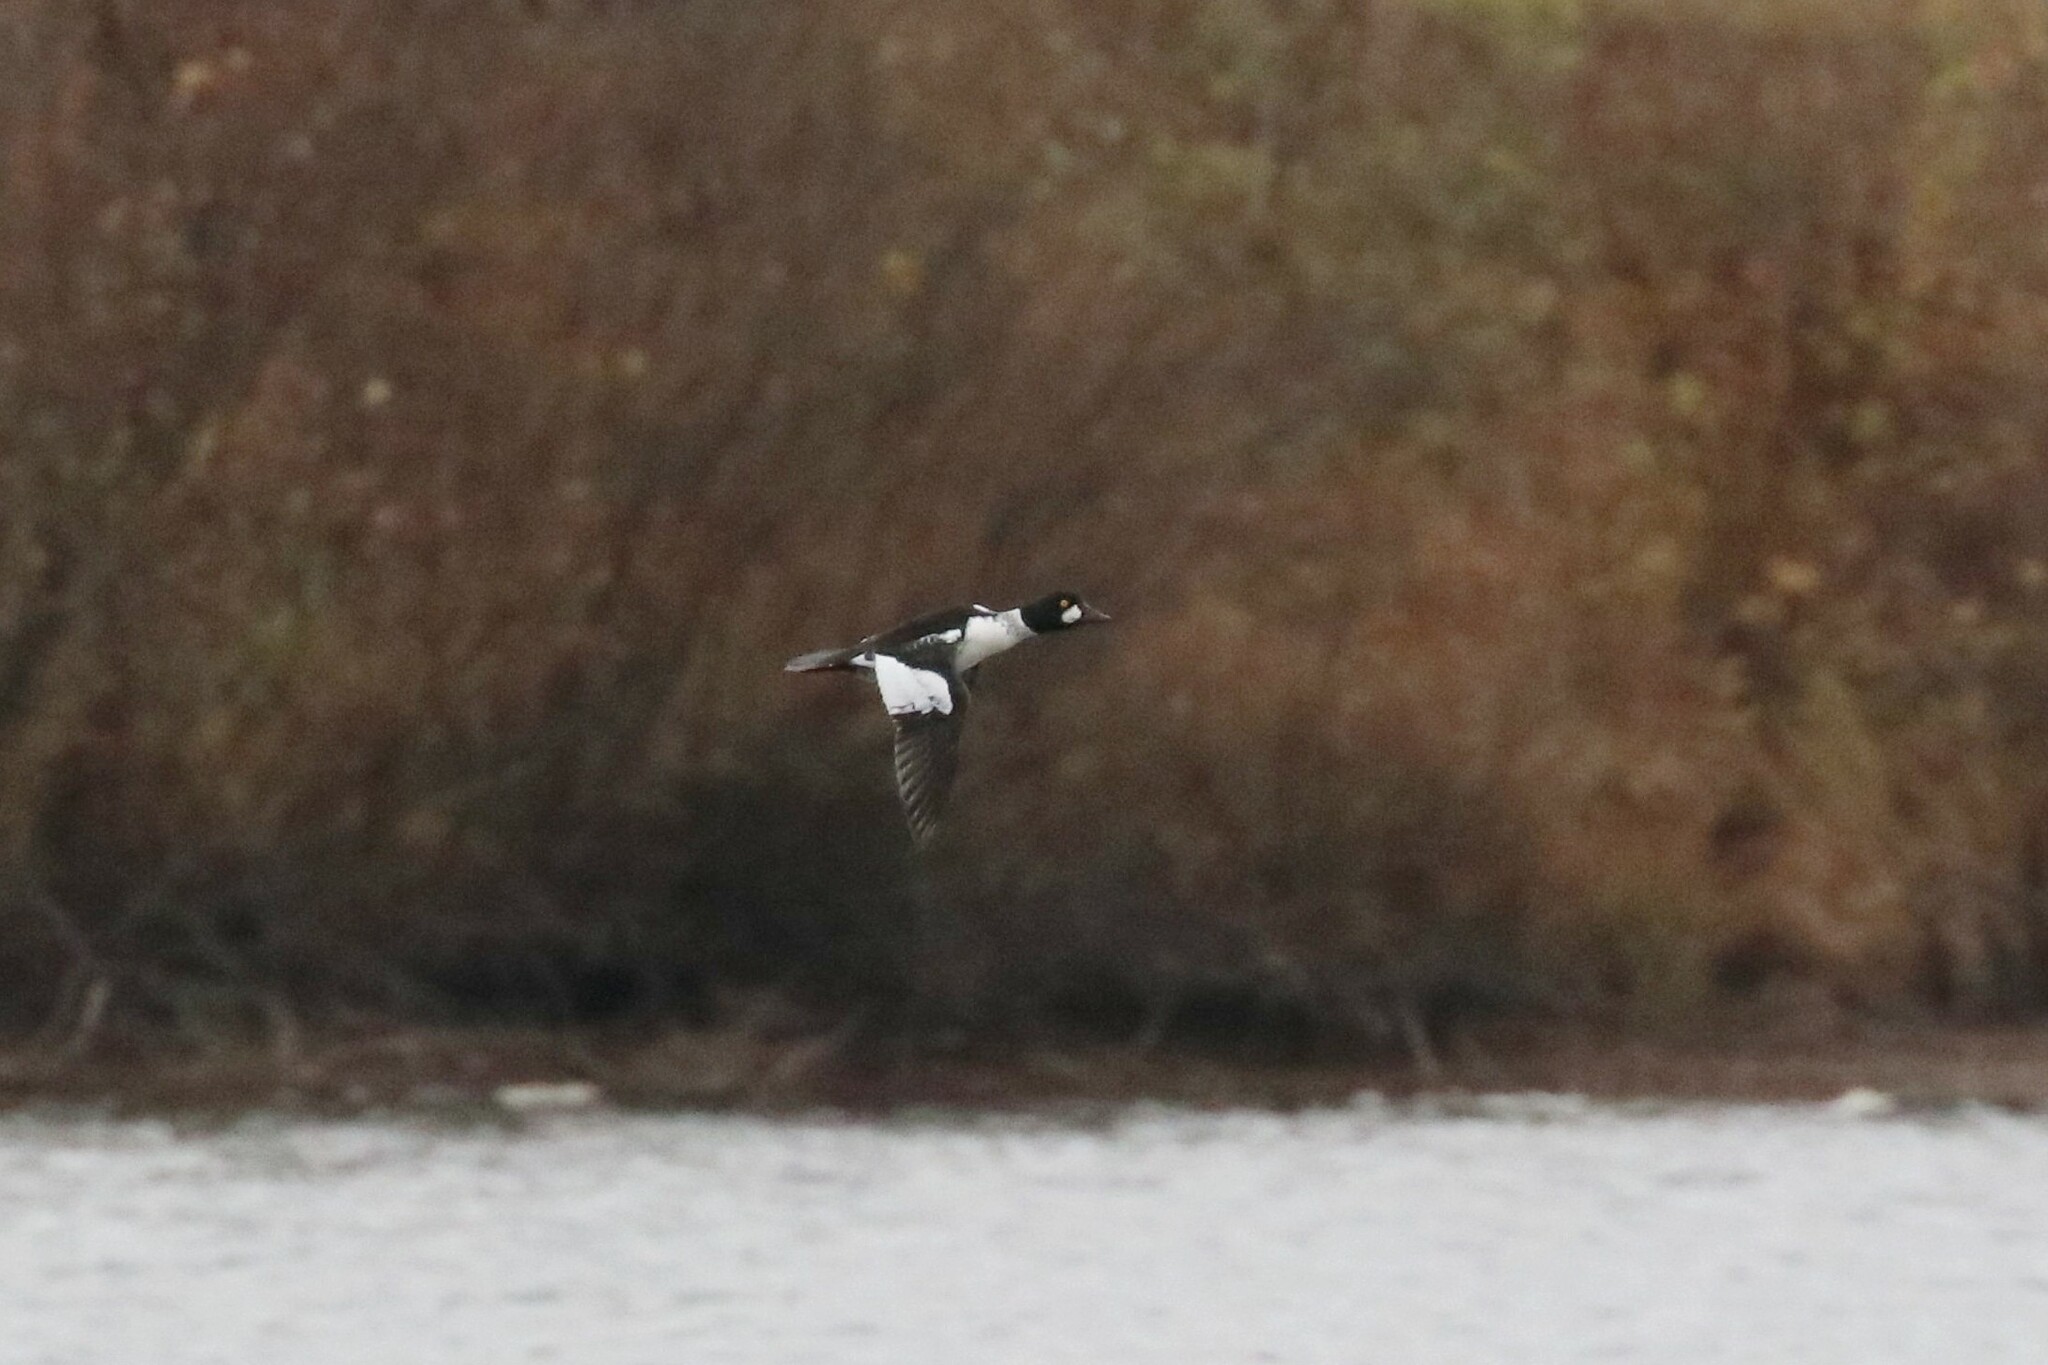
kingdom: Animalia
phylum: Chordata
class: Aves
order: Anseriformes
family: Anatidae
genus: Bucephala
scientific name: Bucephala clangula
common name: Common goldeneye
